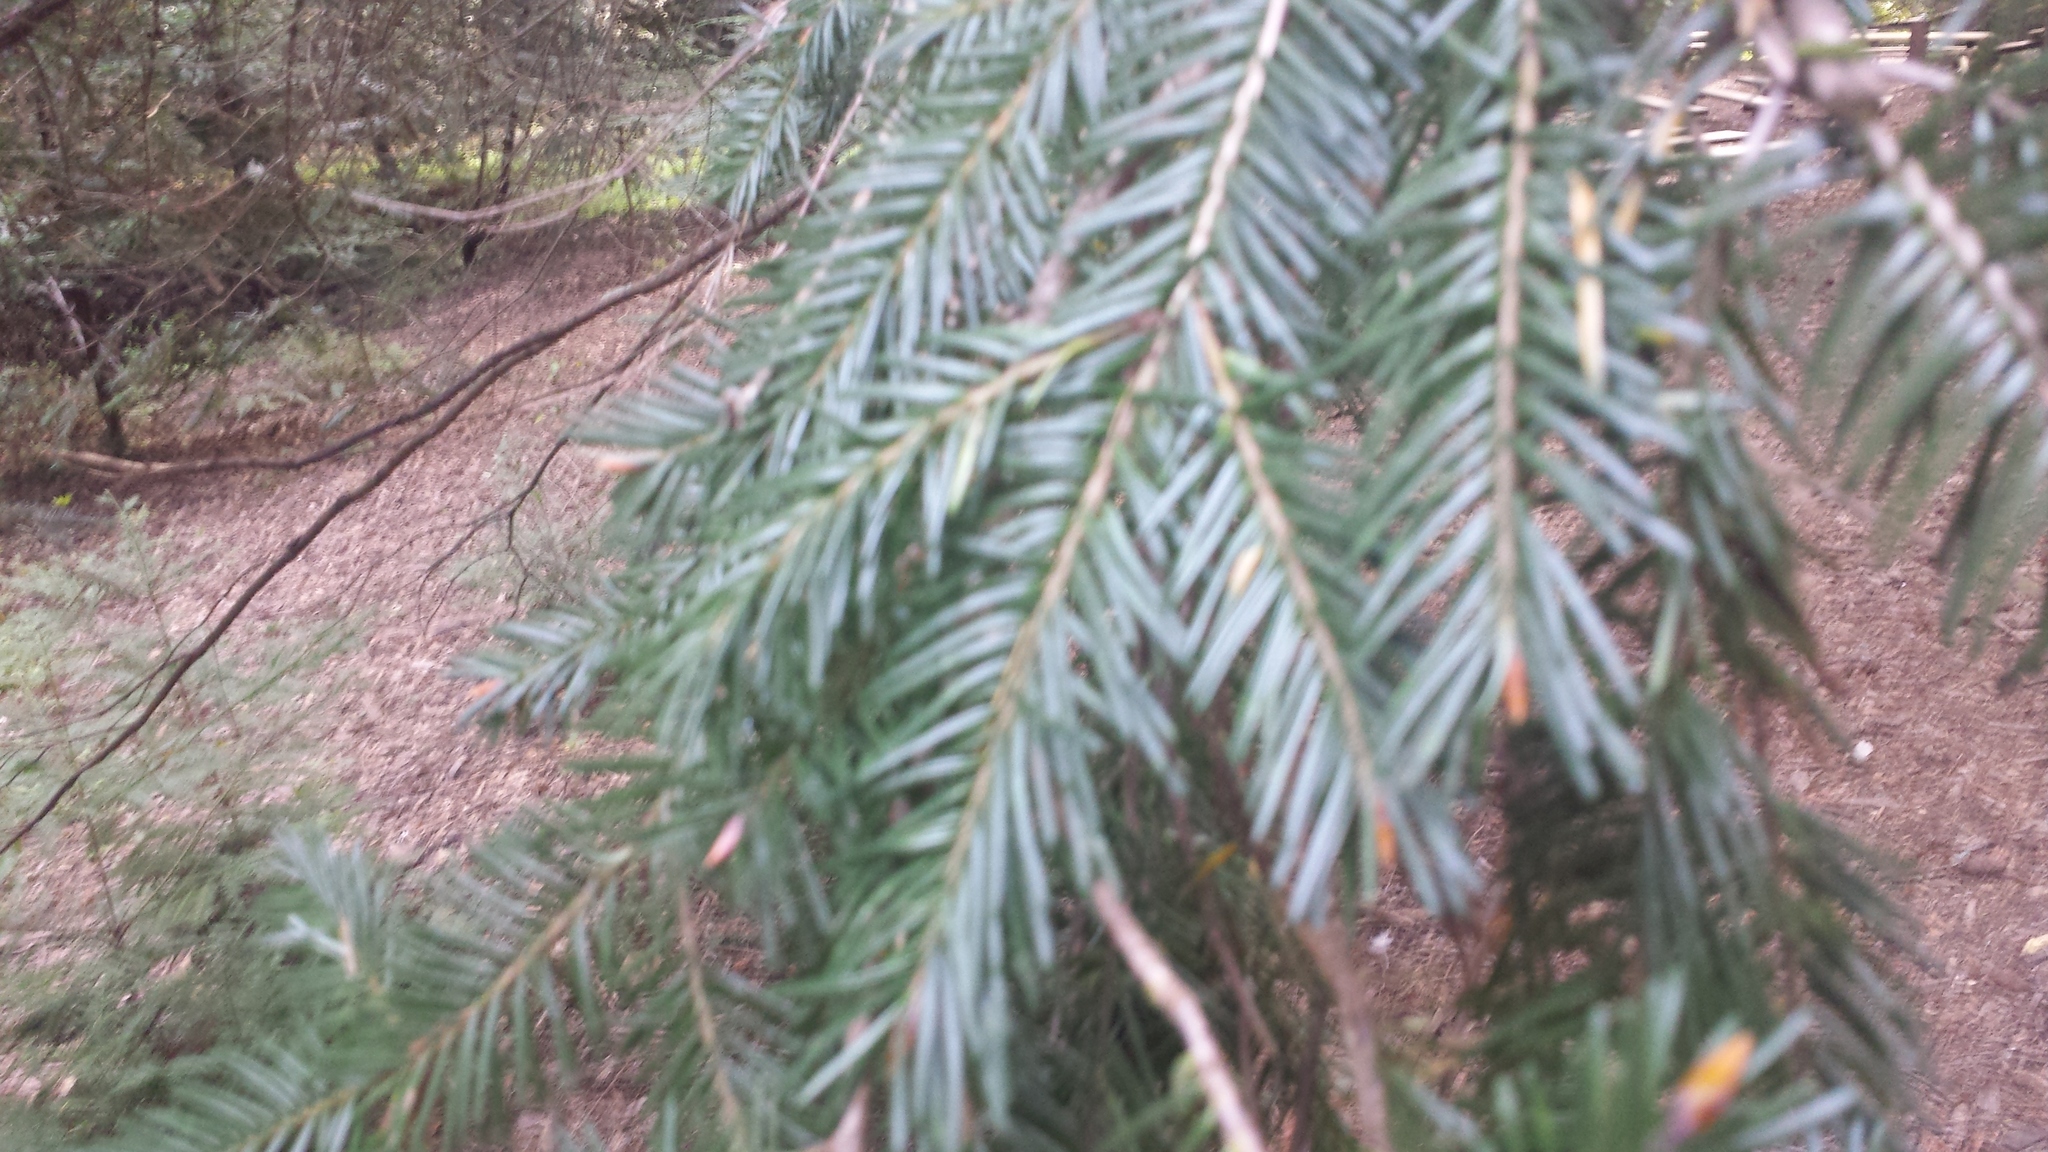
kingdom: Plantae
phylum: Tracheophyta
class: Pinopsida
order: Pinales
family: Pinaceae
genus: Pseudotsuga
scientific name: Pseudotsuga menziesii
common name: Douglas fir
